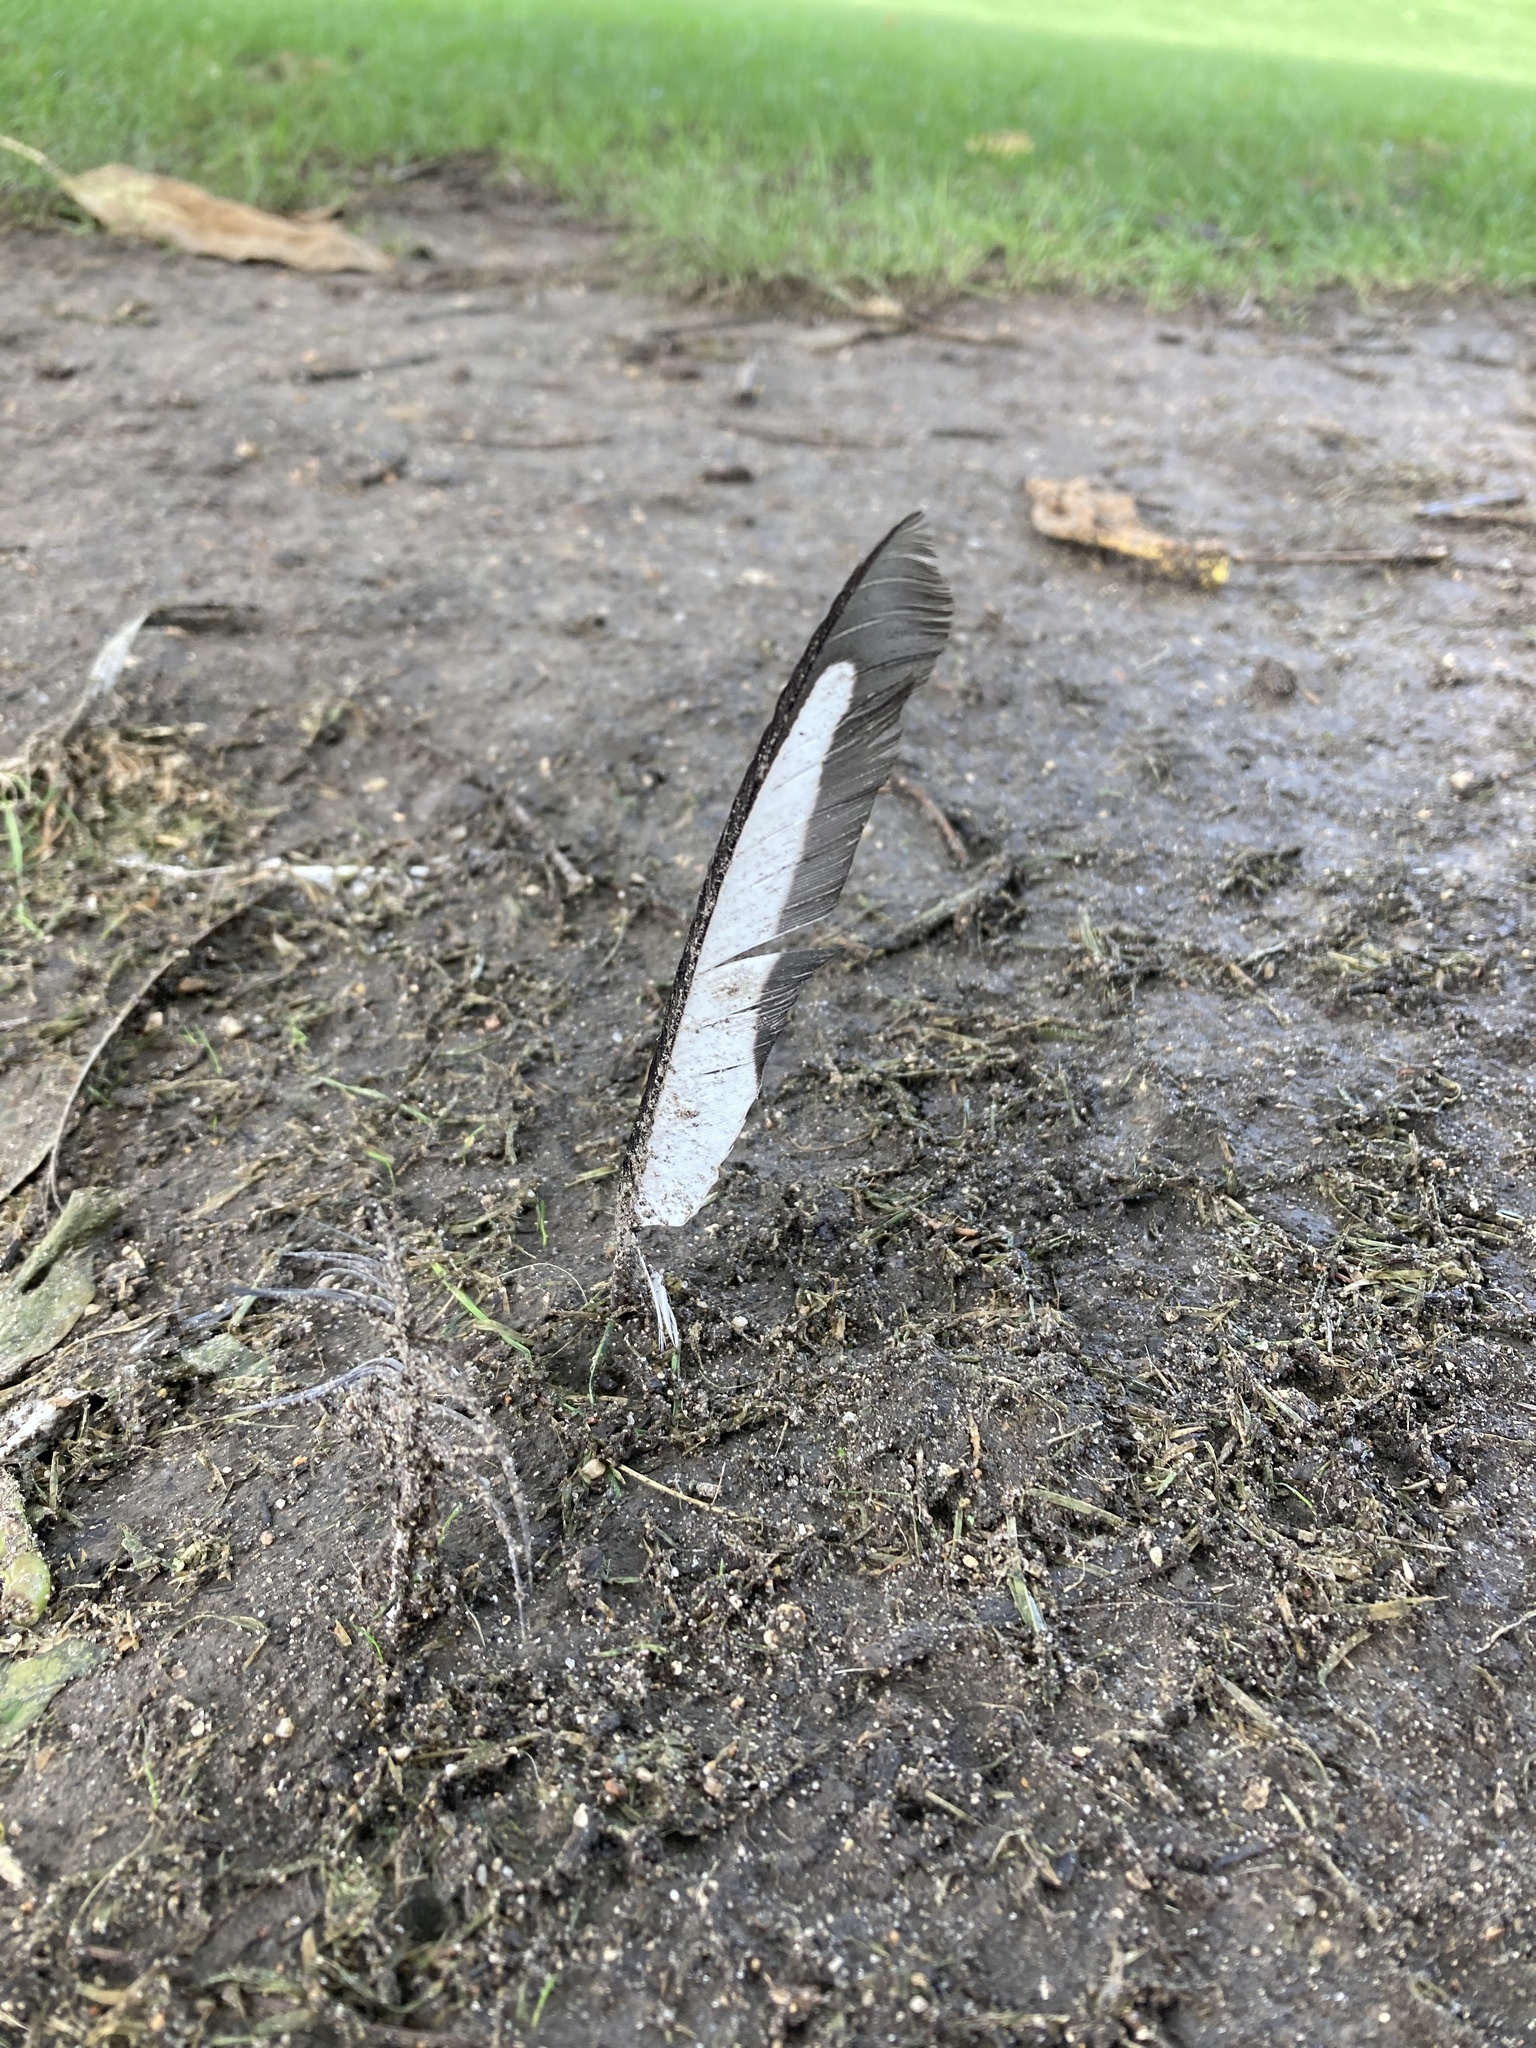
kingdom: Animalia
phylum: Chordata
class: Aves
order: Passeriformes
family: Corvidae
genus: Pica
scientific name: Pica pica
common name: Eurasian magpie
